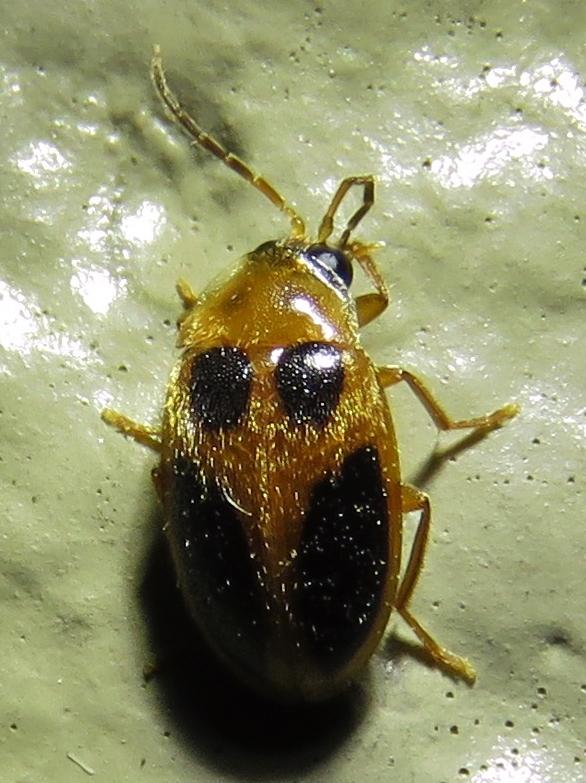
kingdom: Animalia
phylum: Arthropoda
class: Insecta
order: Coleoptera
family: Scirtidae
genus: Sacodes
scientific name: Sacodes pulchella
